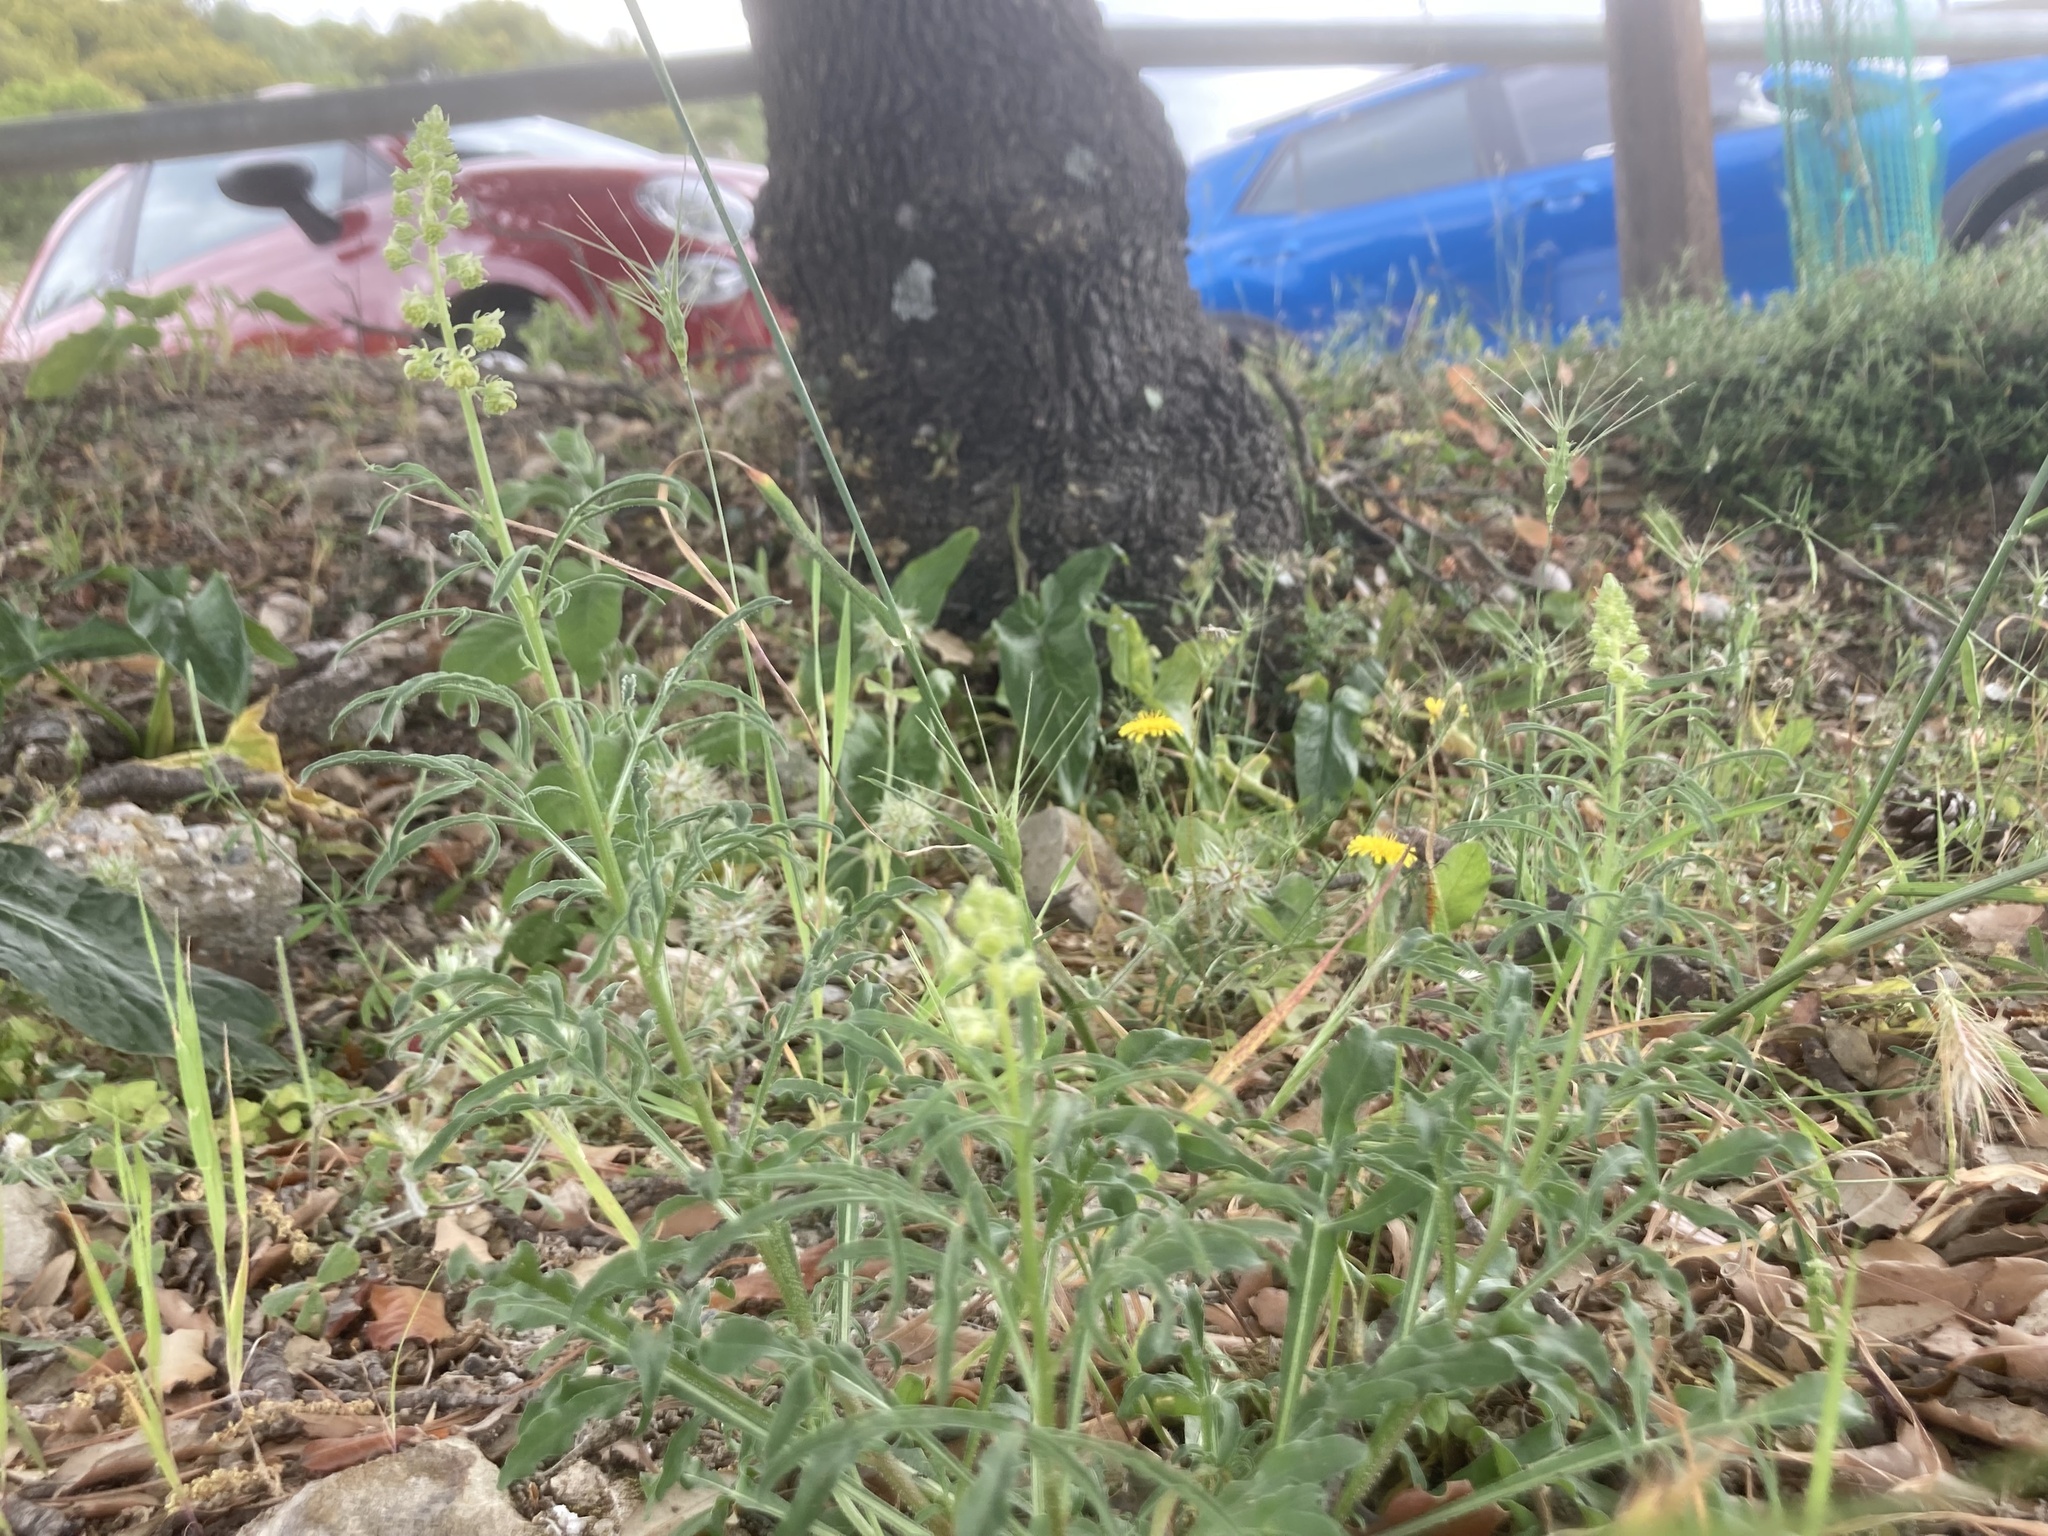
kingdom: Plantae
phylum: Tracheophyta
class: Magnoliopsida
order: Brassicales
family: Resedaceae
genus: Reseda
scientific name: Reseda lutea
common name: Wild mignonette
